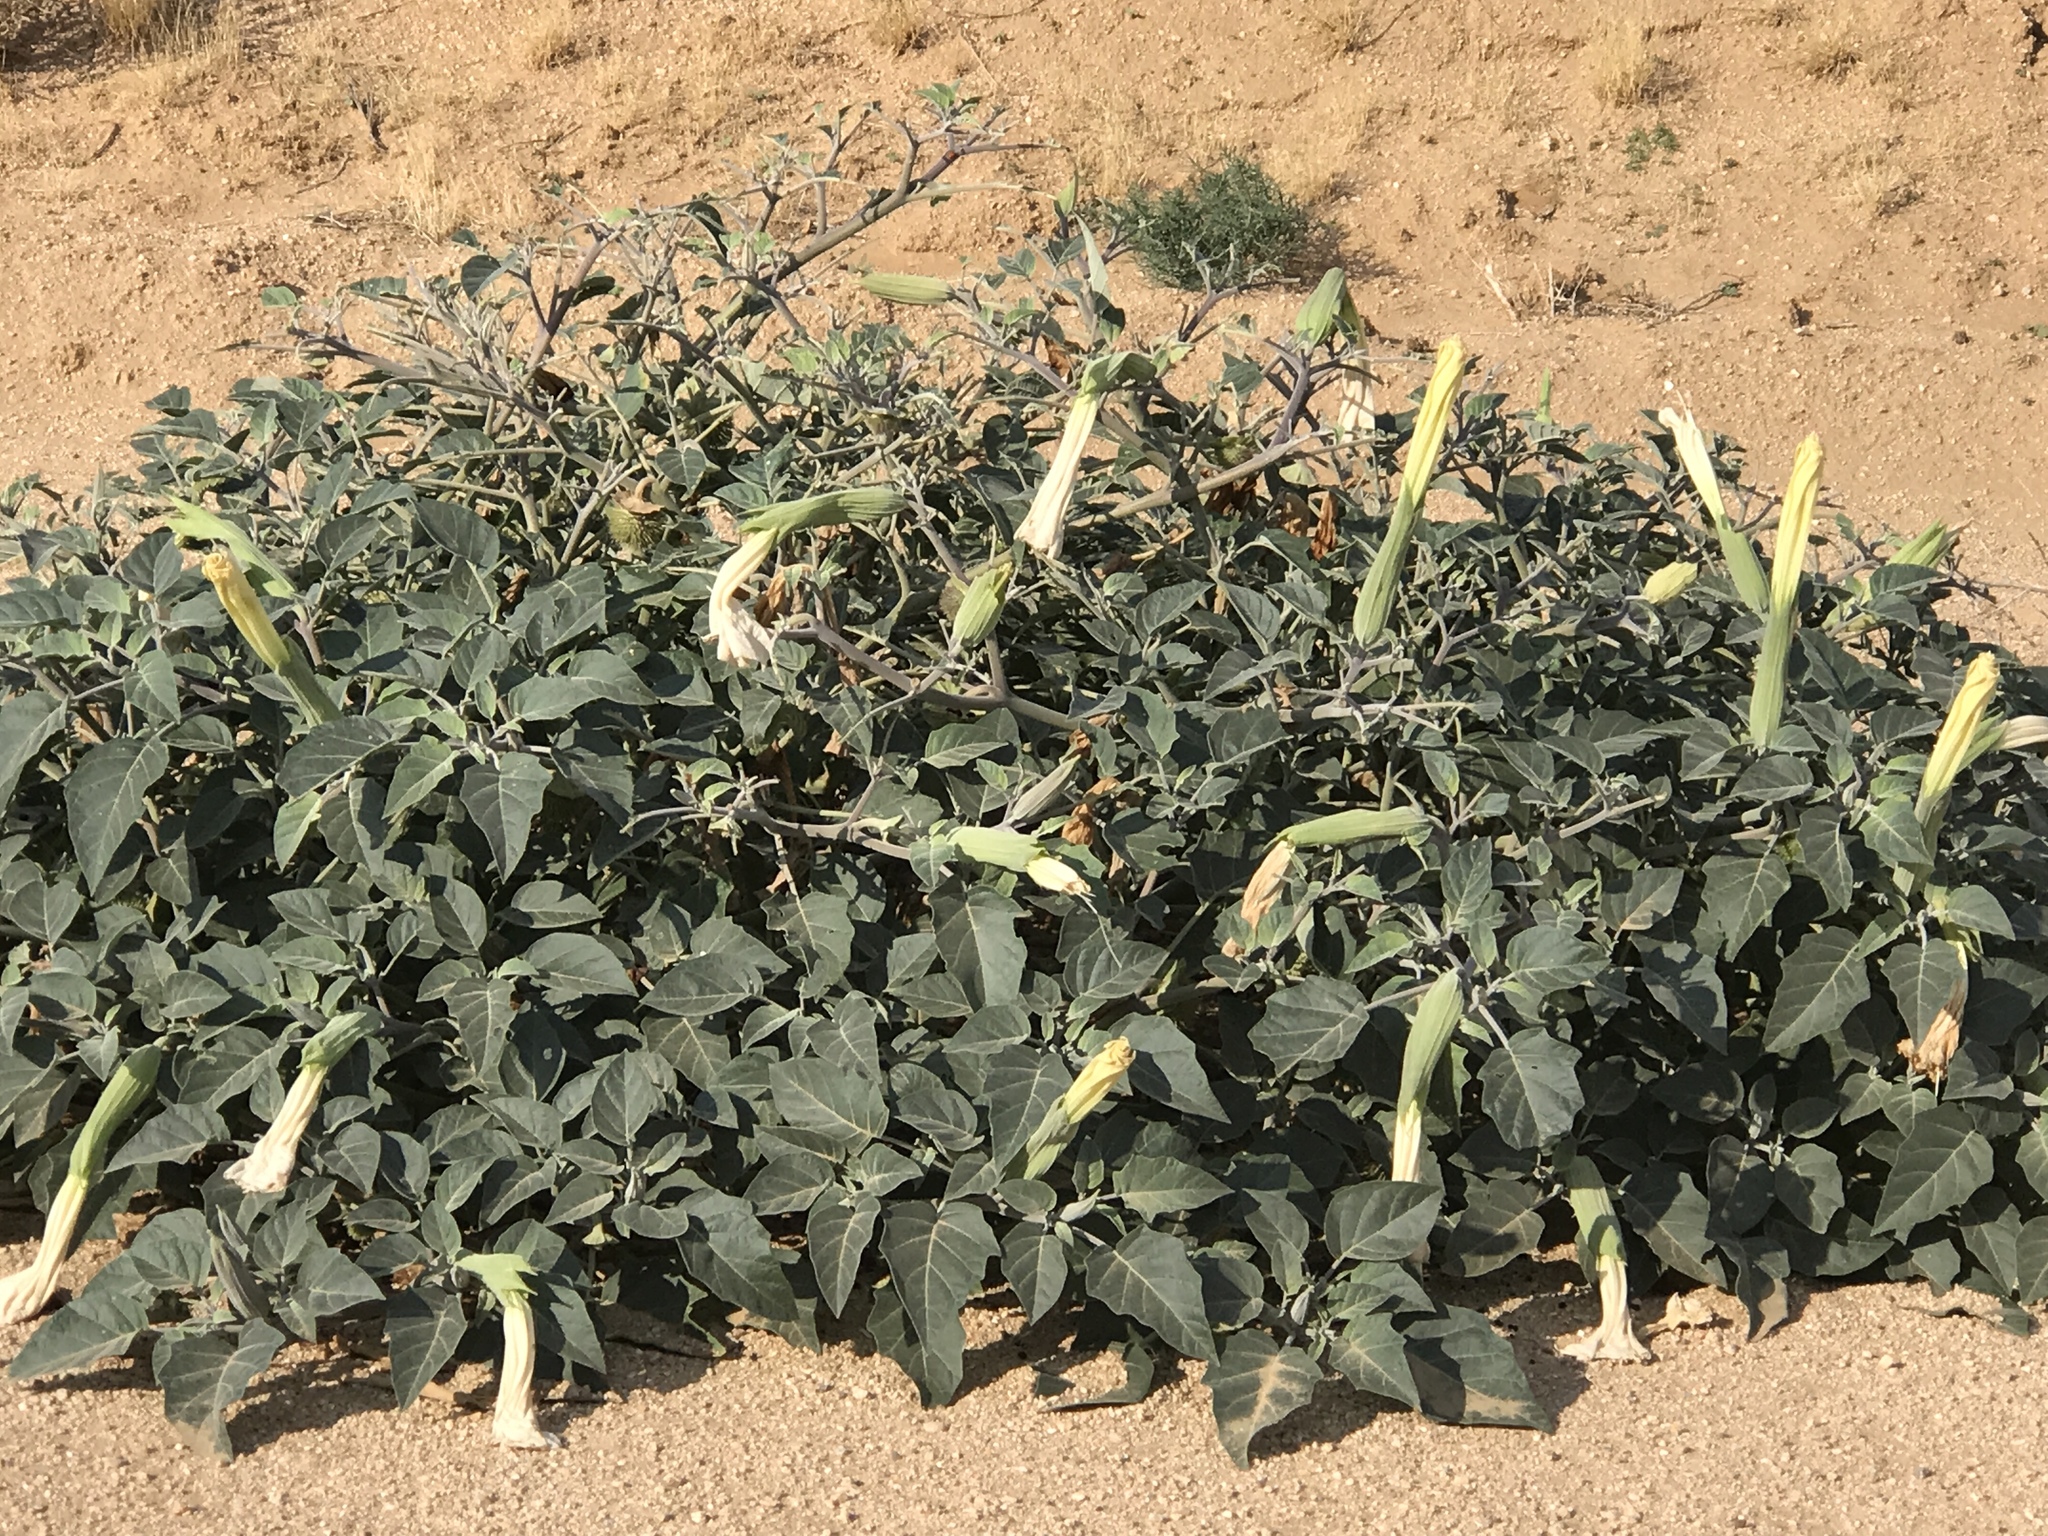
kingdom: Plantae
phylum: Tracheophyta
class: Magnoliopsida
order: Solanales
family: Solanaceae
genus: Datura
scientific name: Datura wrightii
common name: Sacred thorn-apple
